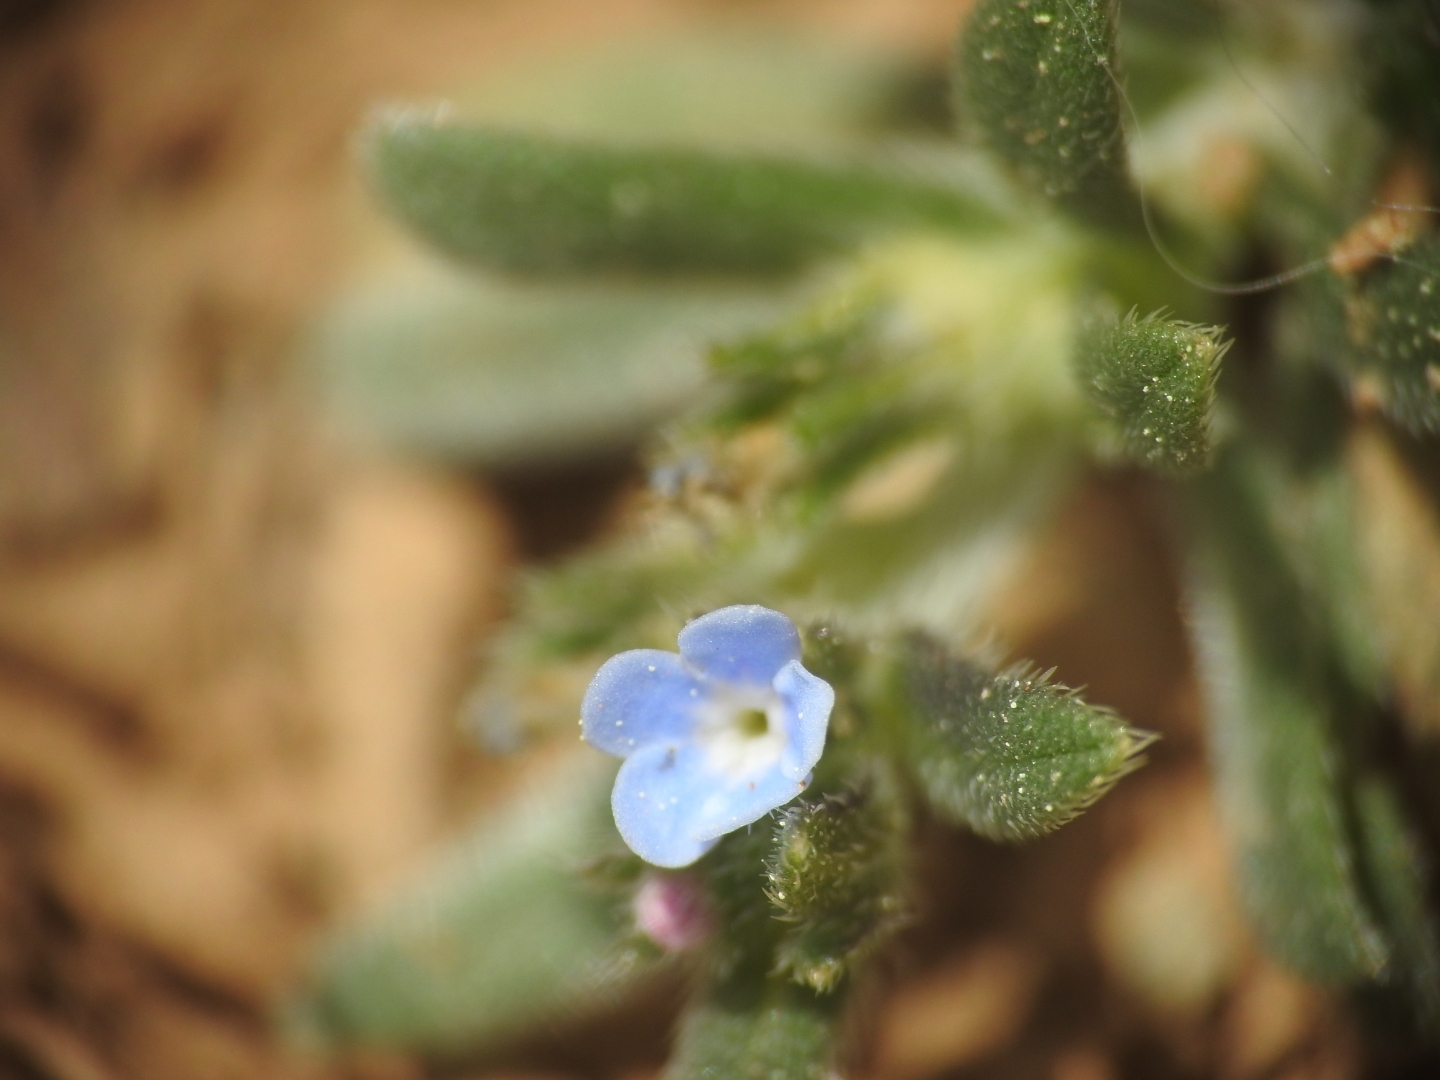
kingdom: Plantae
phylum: Tracheophyta
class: Magnoliopsida
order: Boraginales
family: Boraginaceae
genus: Buglossoides
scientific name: Buglossoides incrassata
